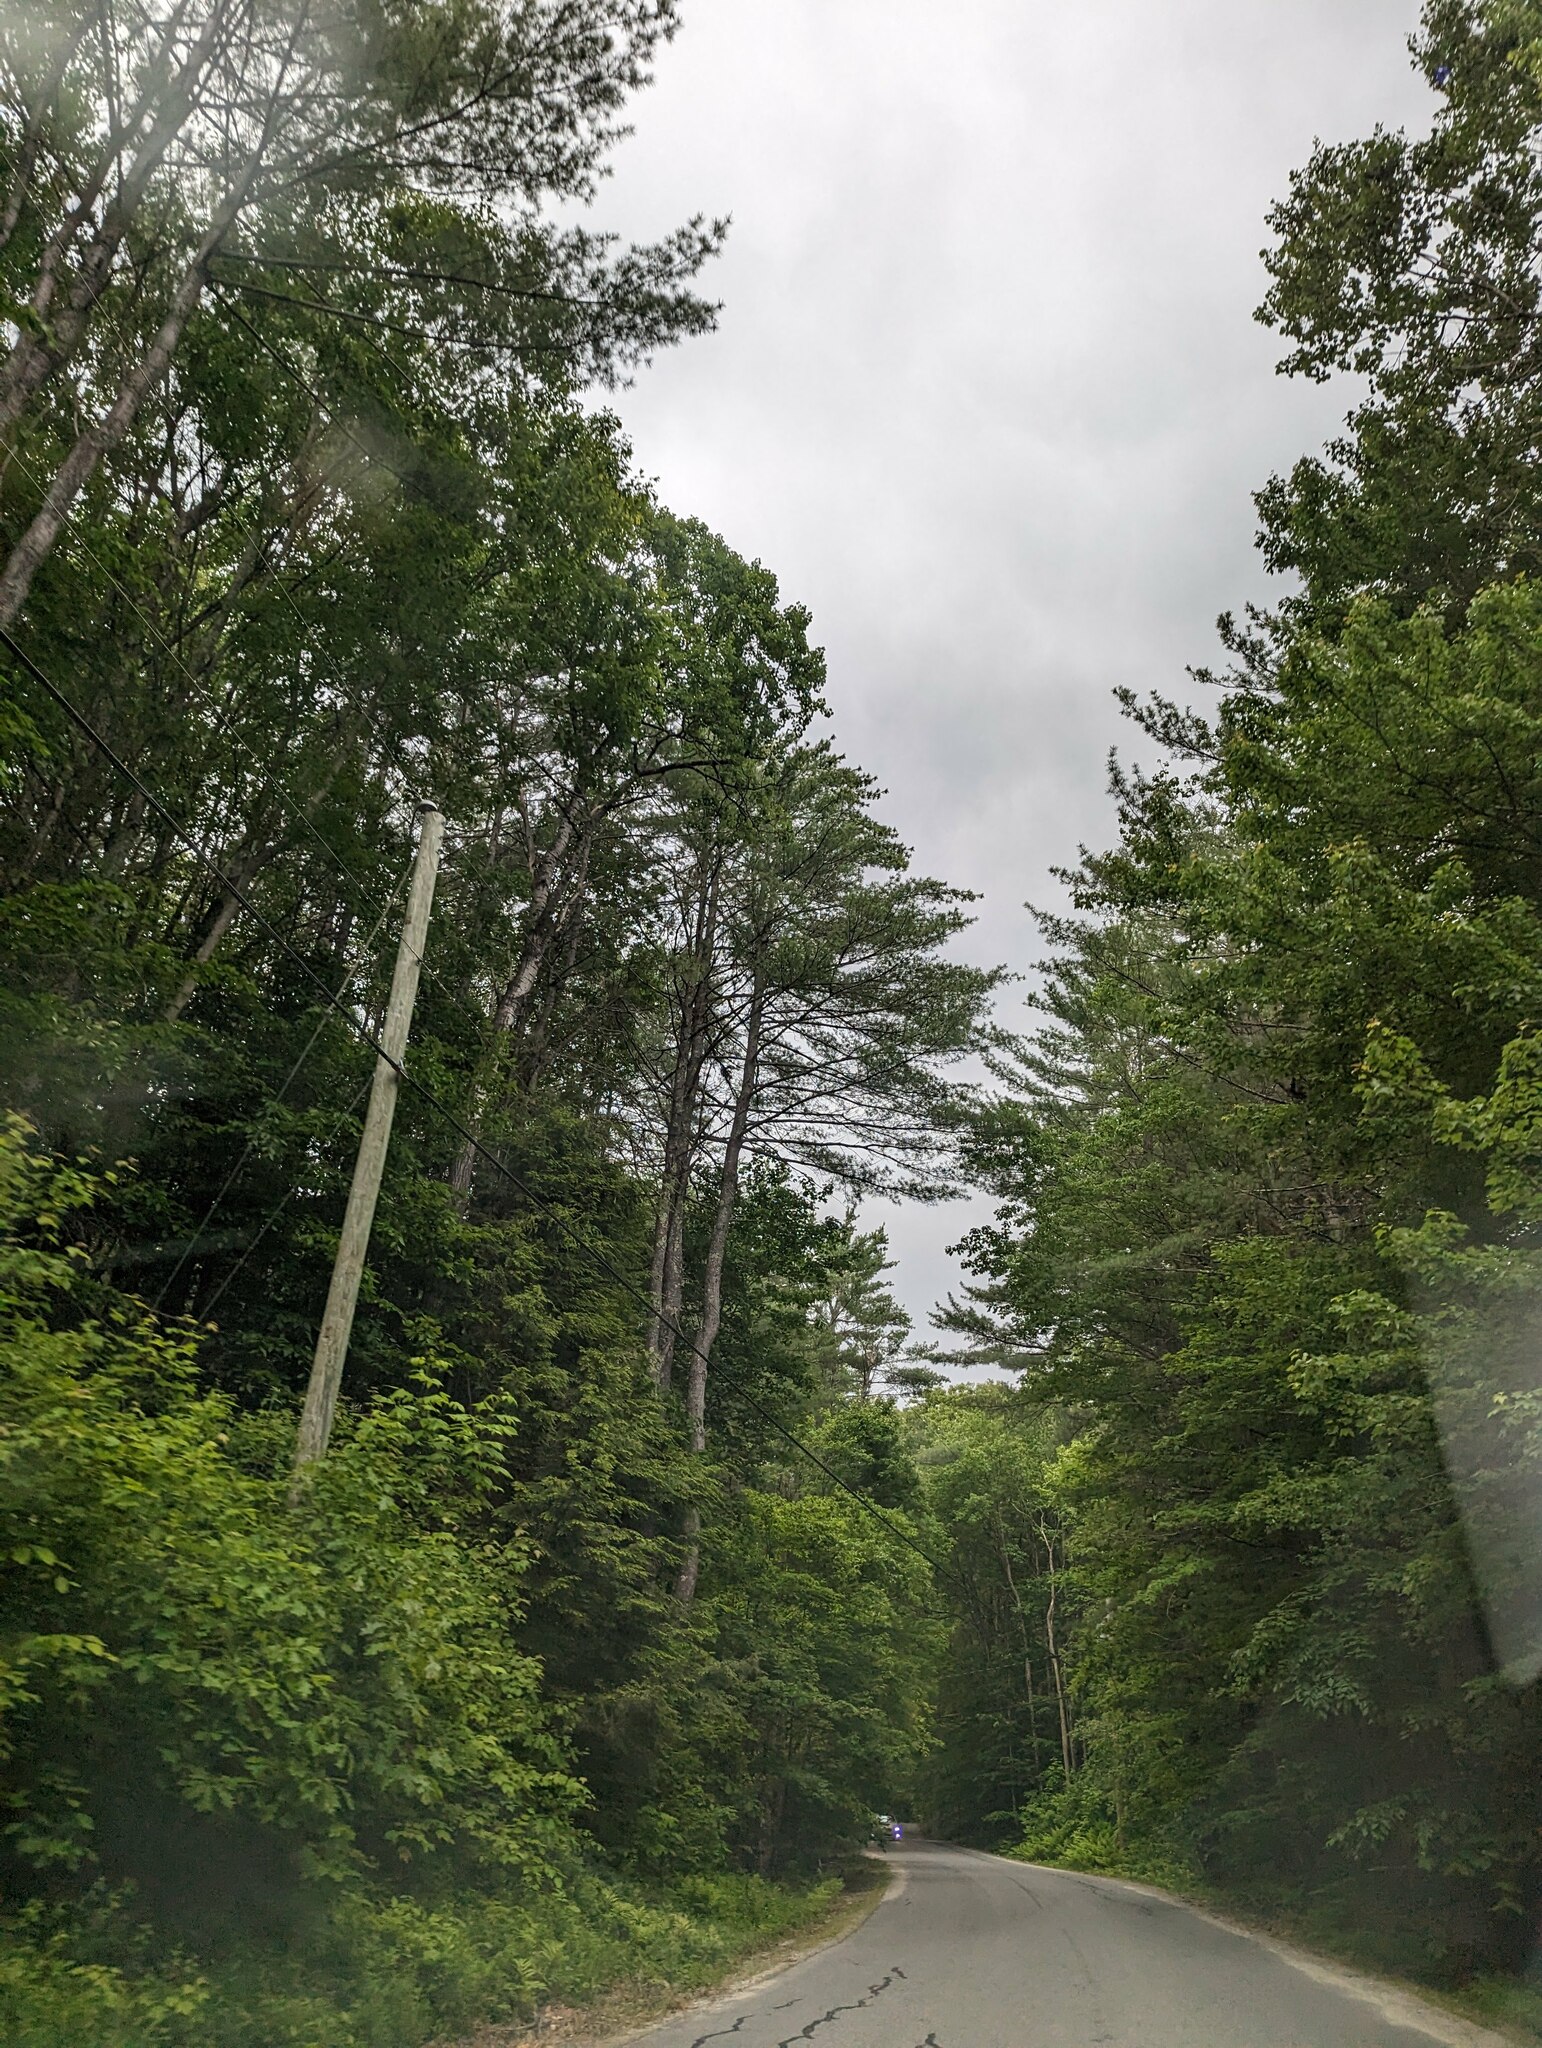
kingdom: Plantae
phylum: Tracheophyta
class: Pinopsida
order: Pinales
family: Pinaceae
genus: Pinus
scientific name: Pinus strobus
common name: Weymouth pine
